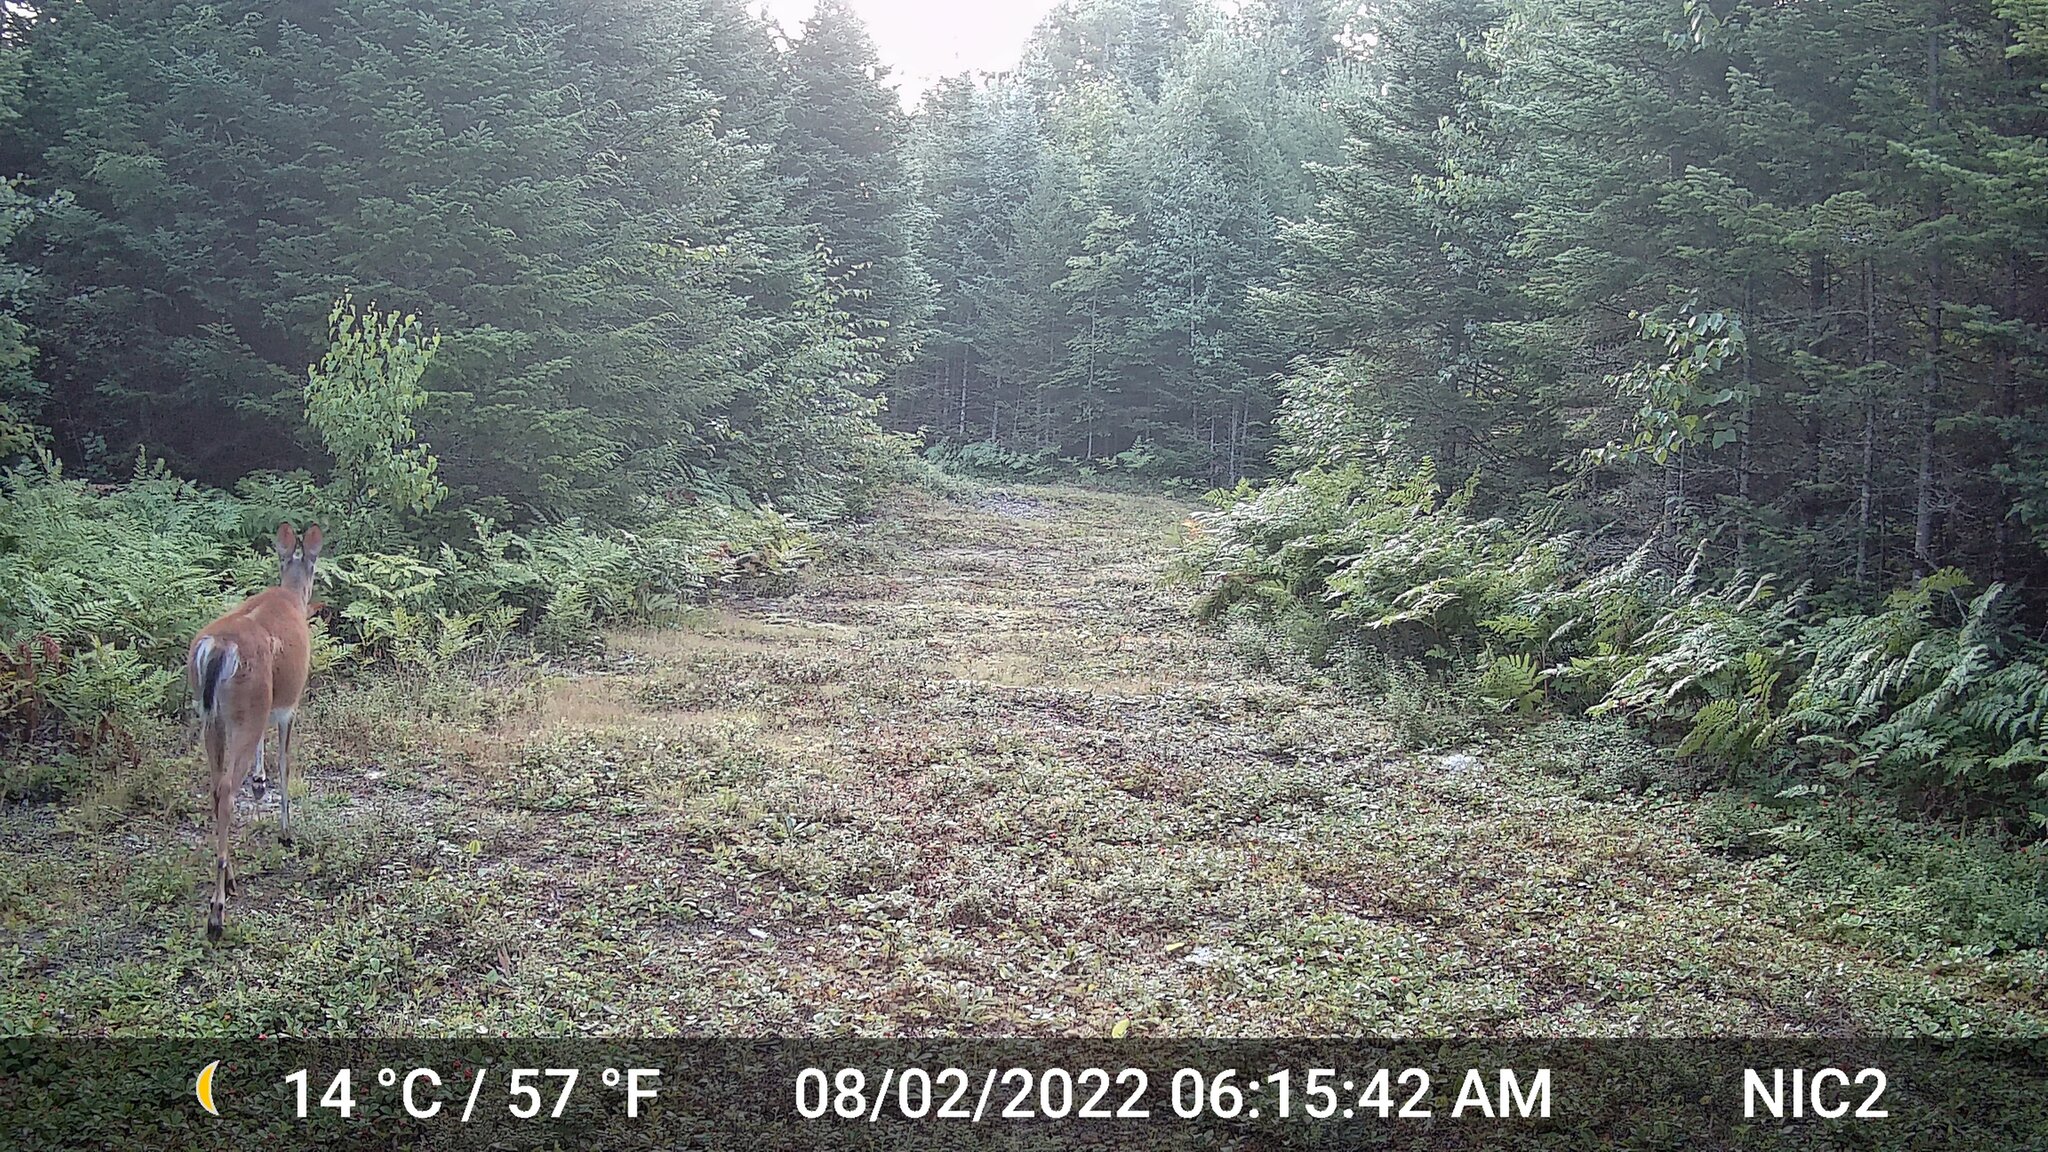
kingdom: Animalia
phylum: Chordata
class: Mammalia
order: Artiodactyla
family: Cervidae
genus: Odocoileus
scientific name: Odocoileus virginianus
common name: White-tailed deer
